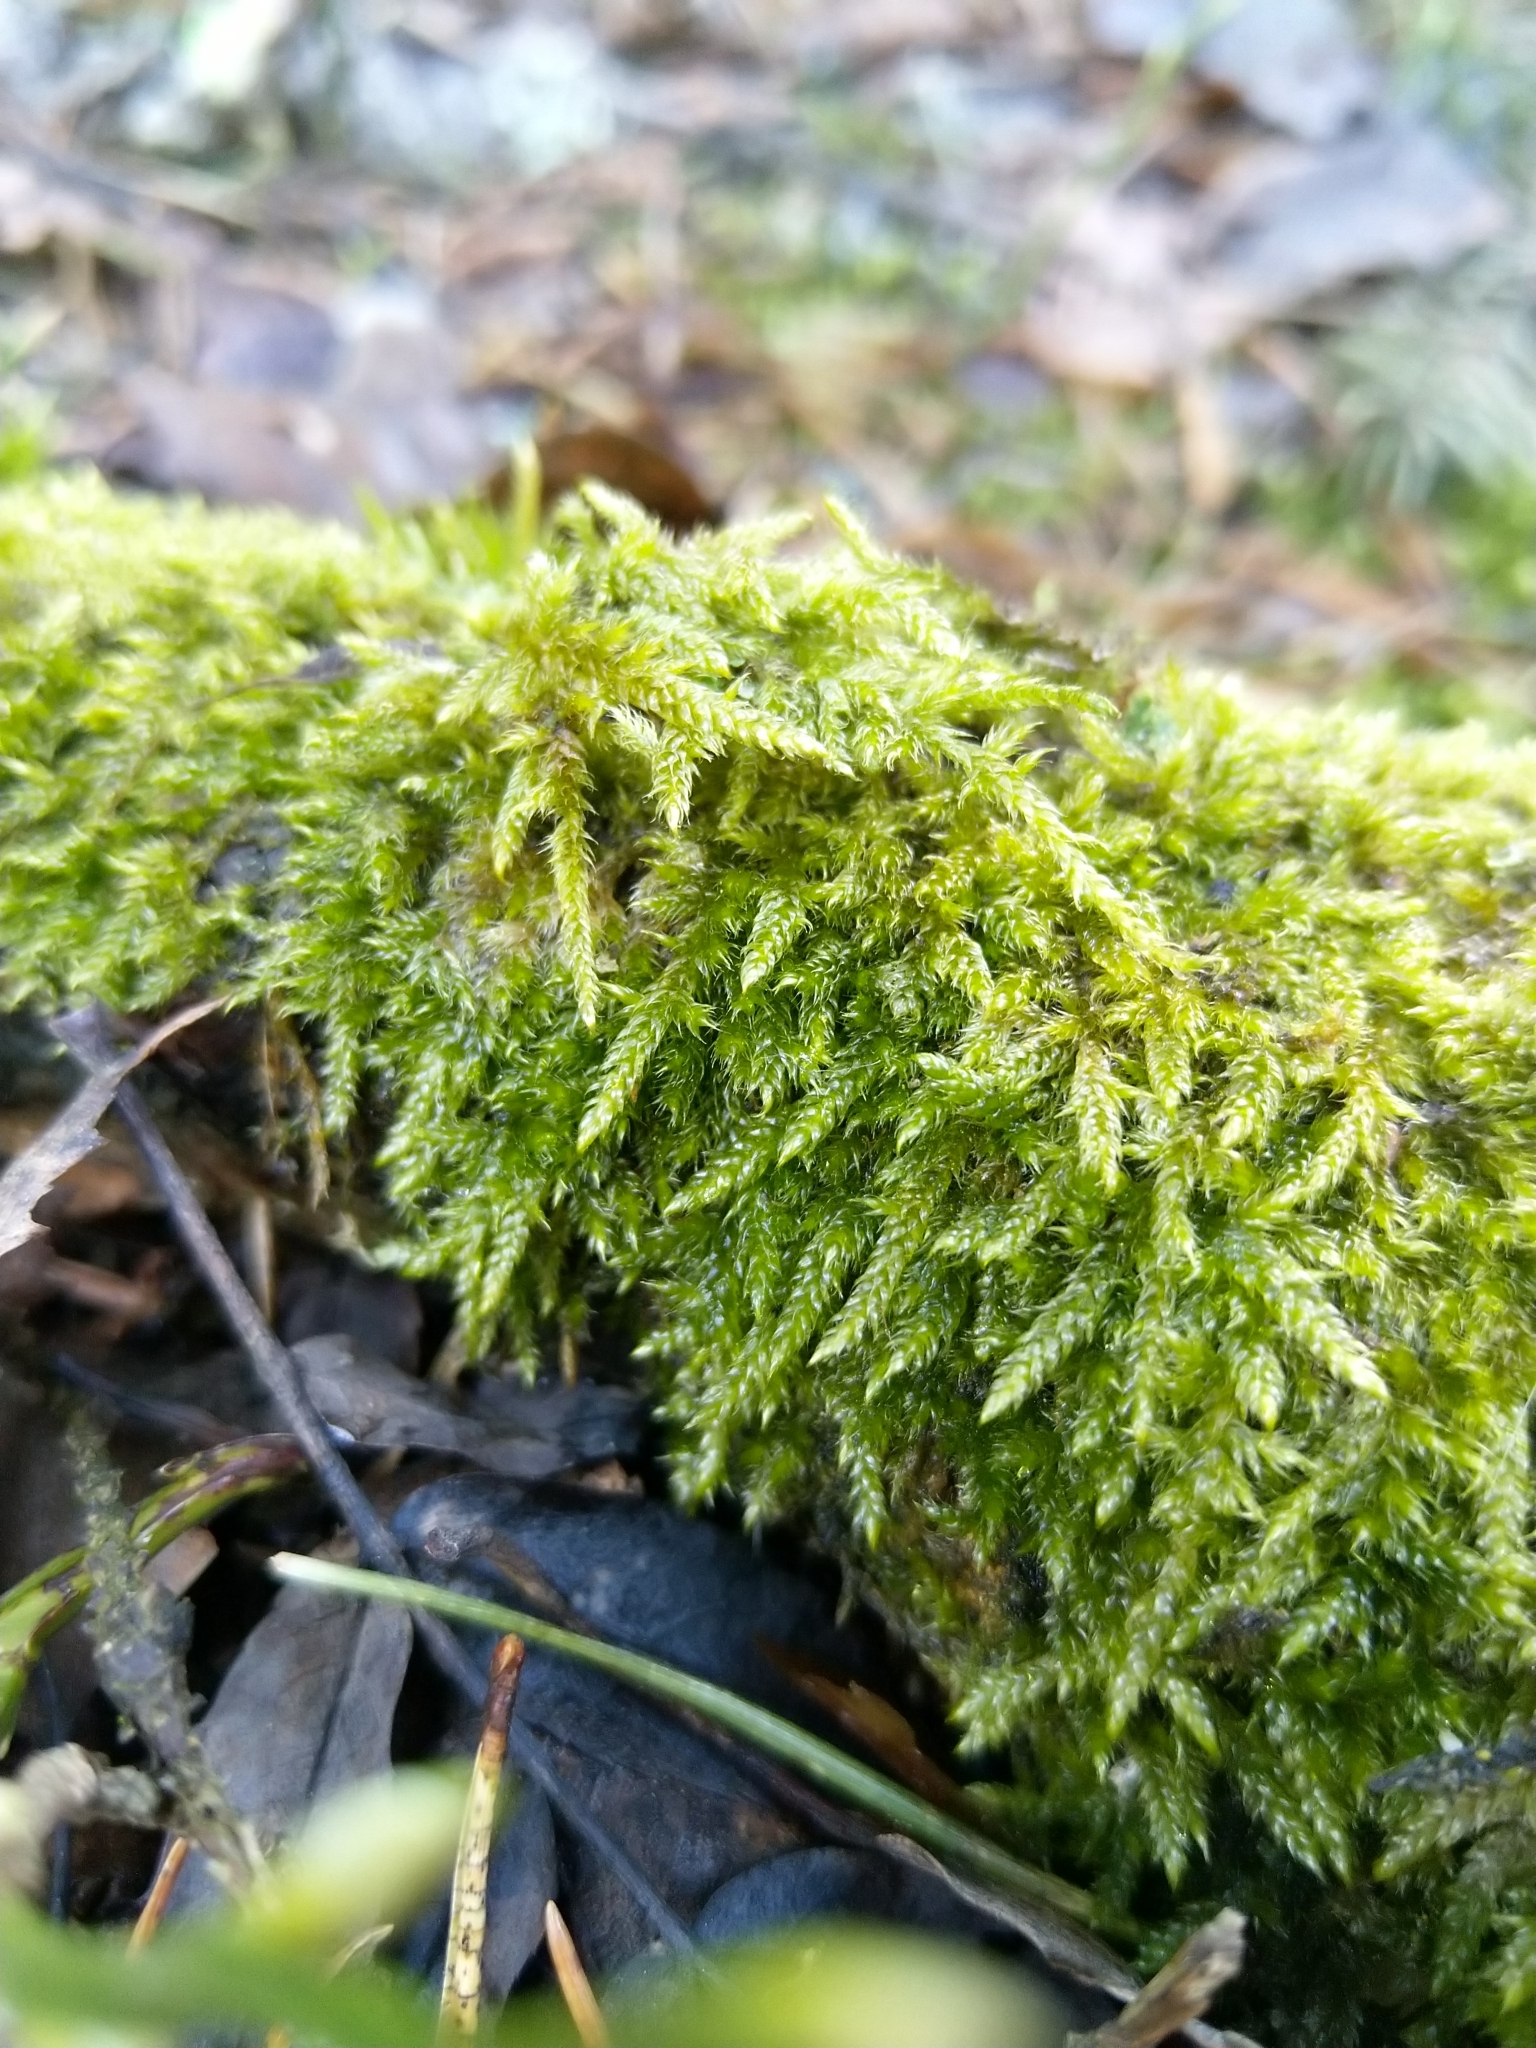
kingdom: Plantae
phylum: Bryophyta
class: Bryopsida
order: Hypnales
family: Hypnaceae
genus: Hypnum
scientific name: Hypnum cupressiforme
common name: Cypress-leaved plait-moss
